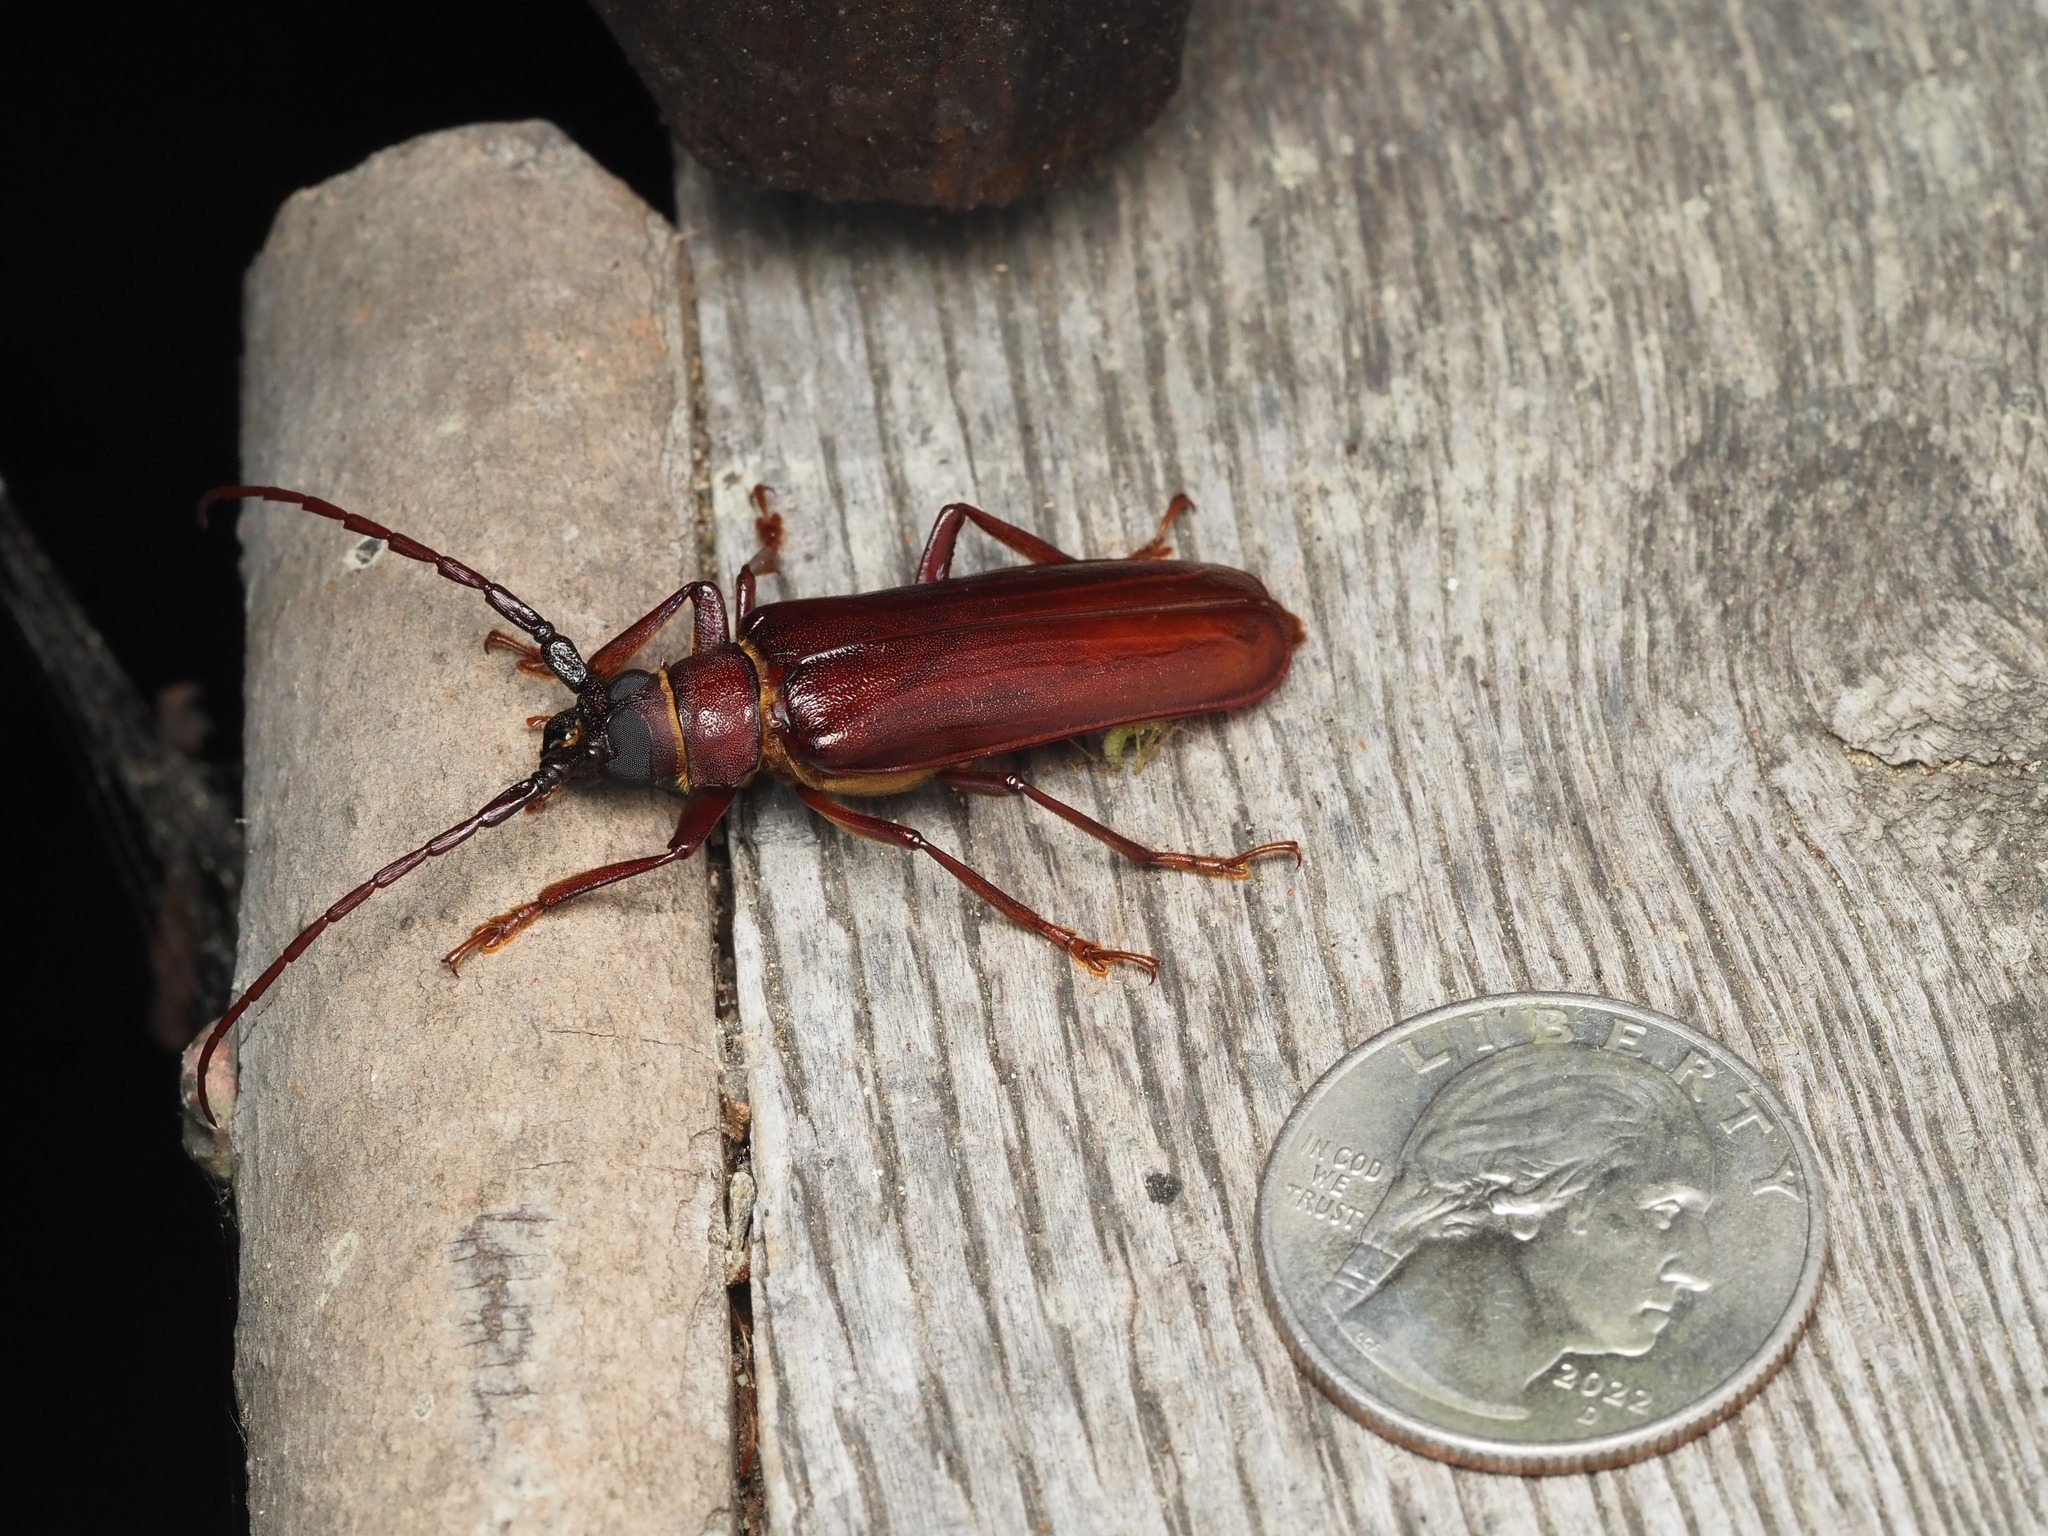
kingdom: Animalia
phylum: Arthropoda
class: Insecta
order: Coleoptera
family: Cerambycidae
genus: Orthosoma
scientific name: Orthosoma brunneum
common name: Brown prionid beetle
